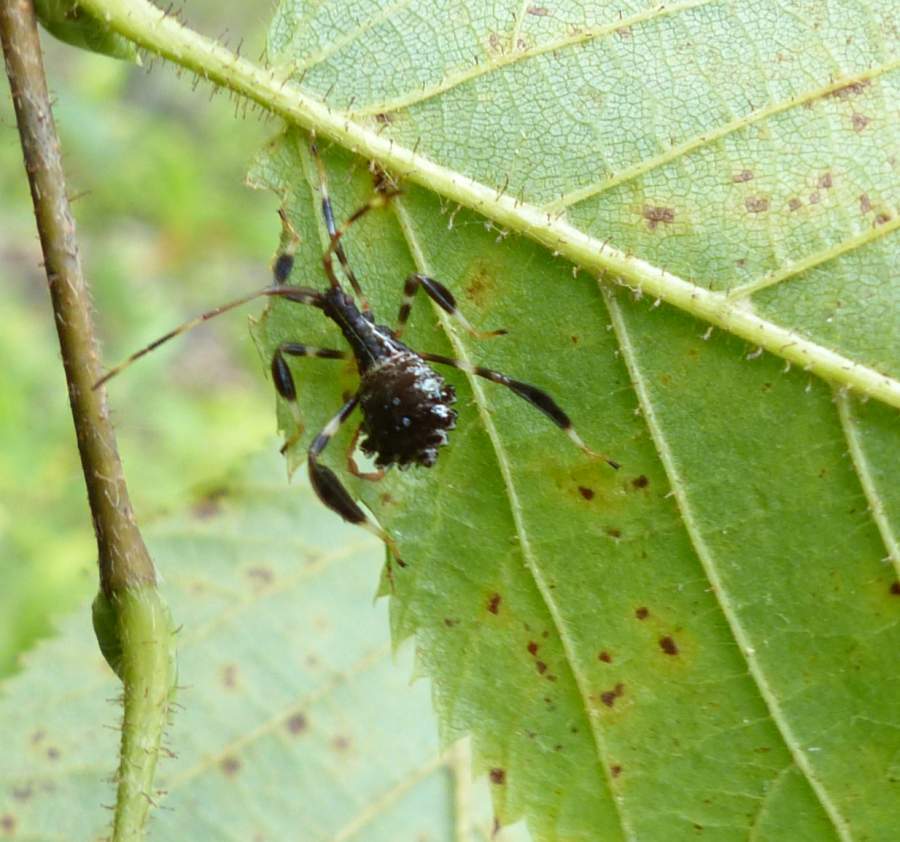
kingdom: Animalia
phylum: Arthropoda
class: Insecta
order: Hemiptera
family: Coreidae
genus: Acanthocephala
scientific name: Acanthocephala terminalis
